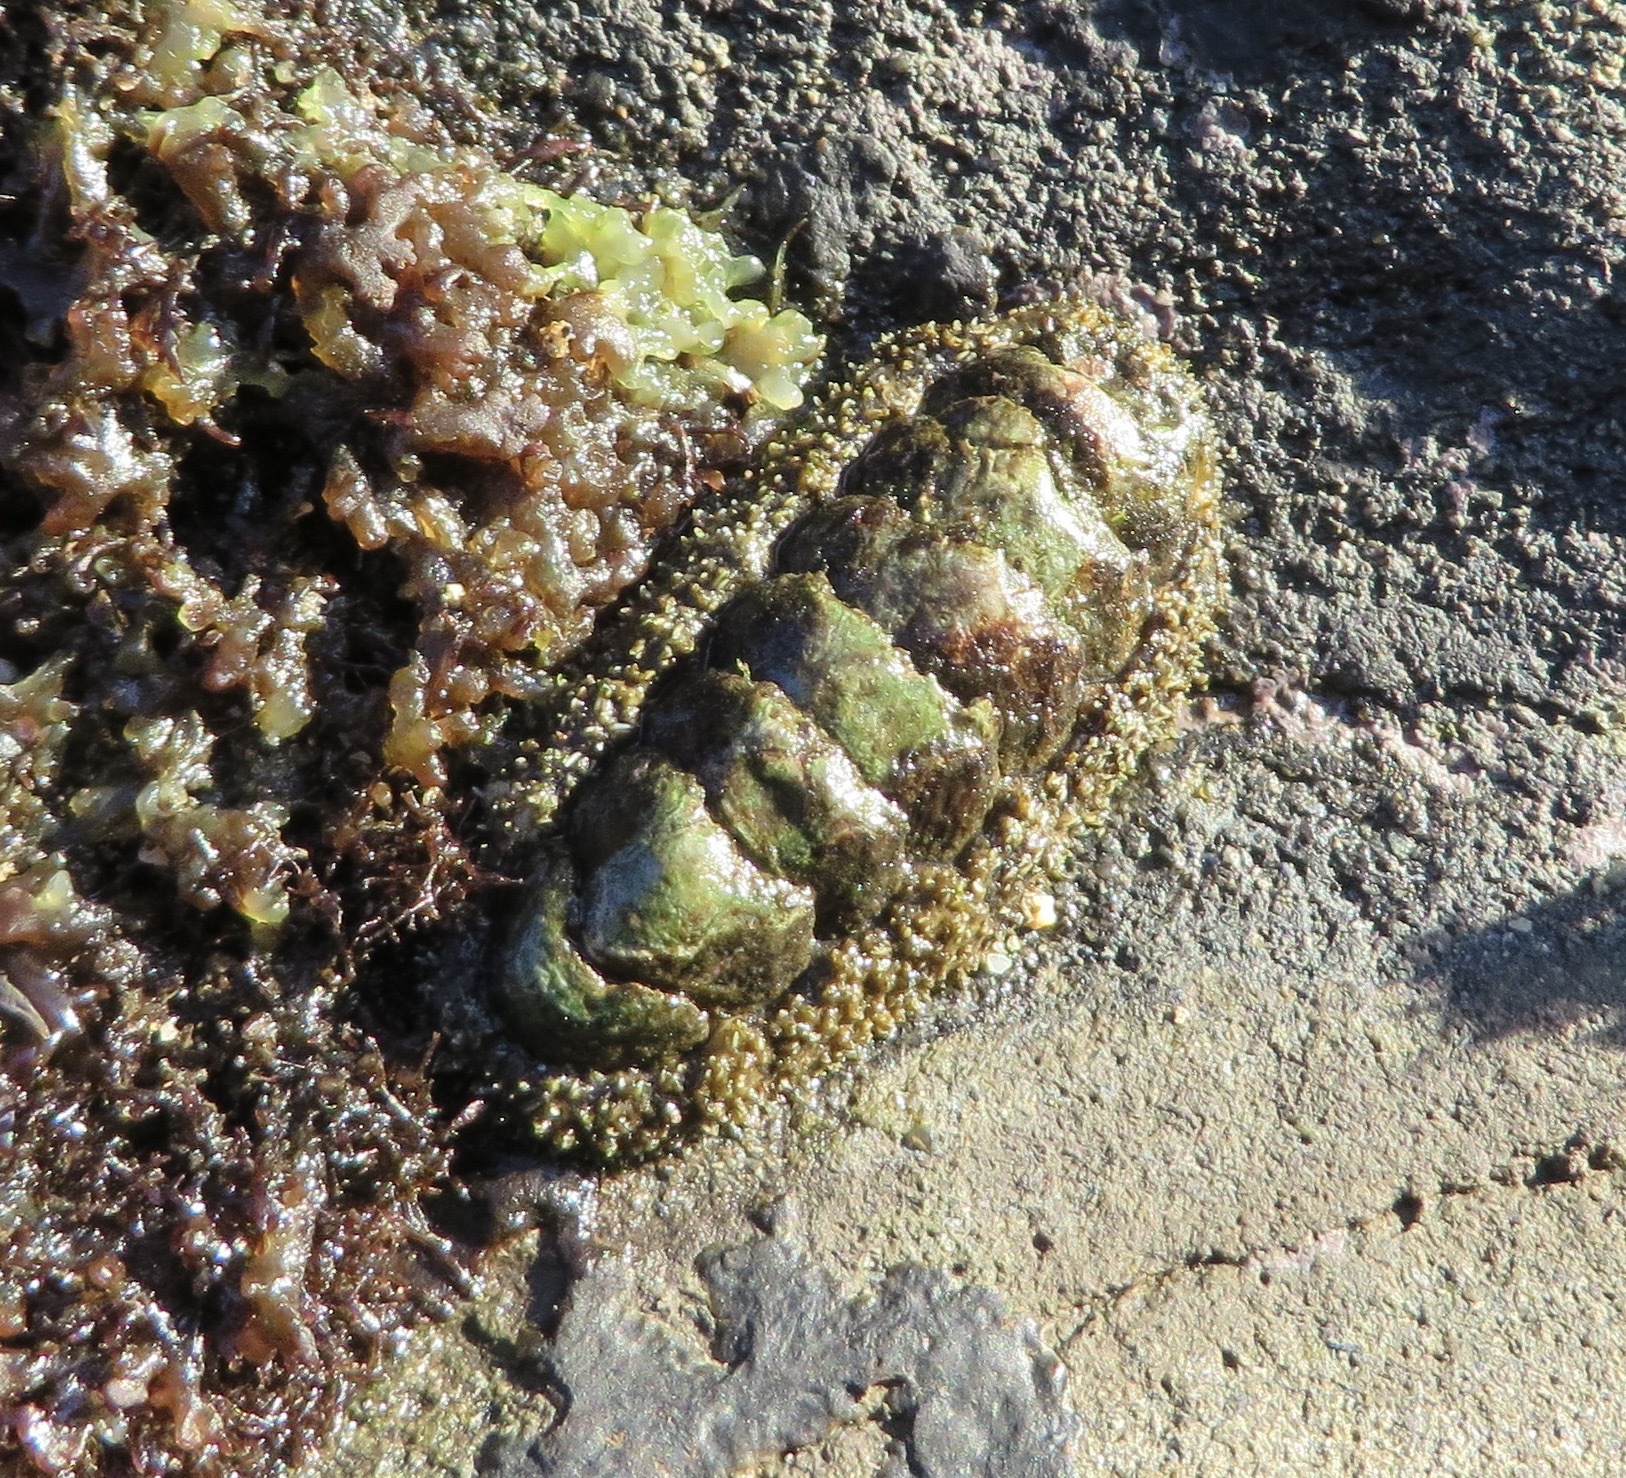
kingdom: Animalia
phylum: Mollusca
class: Polyplacophora
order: Chitonida
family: Tonicellidae
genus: Nuttallina
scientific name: Nuttallina californica
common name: California nuttall chiton
